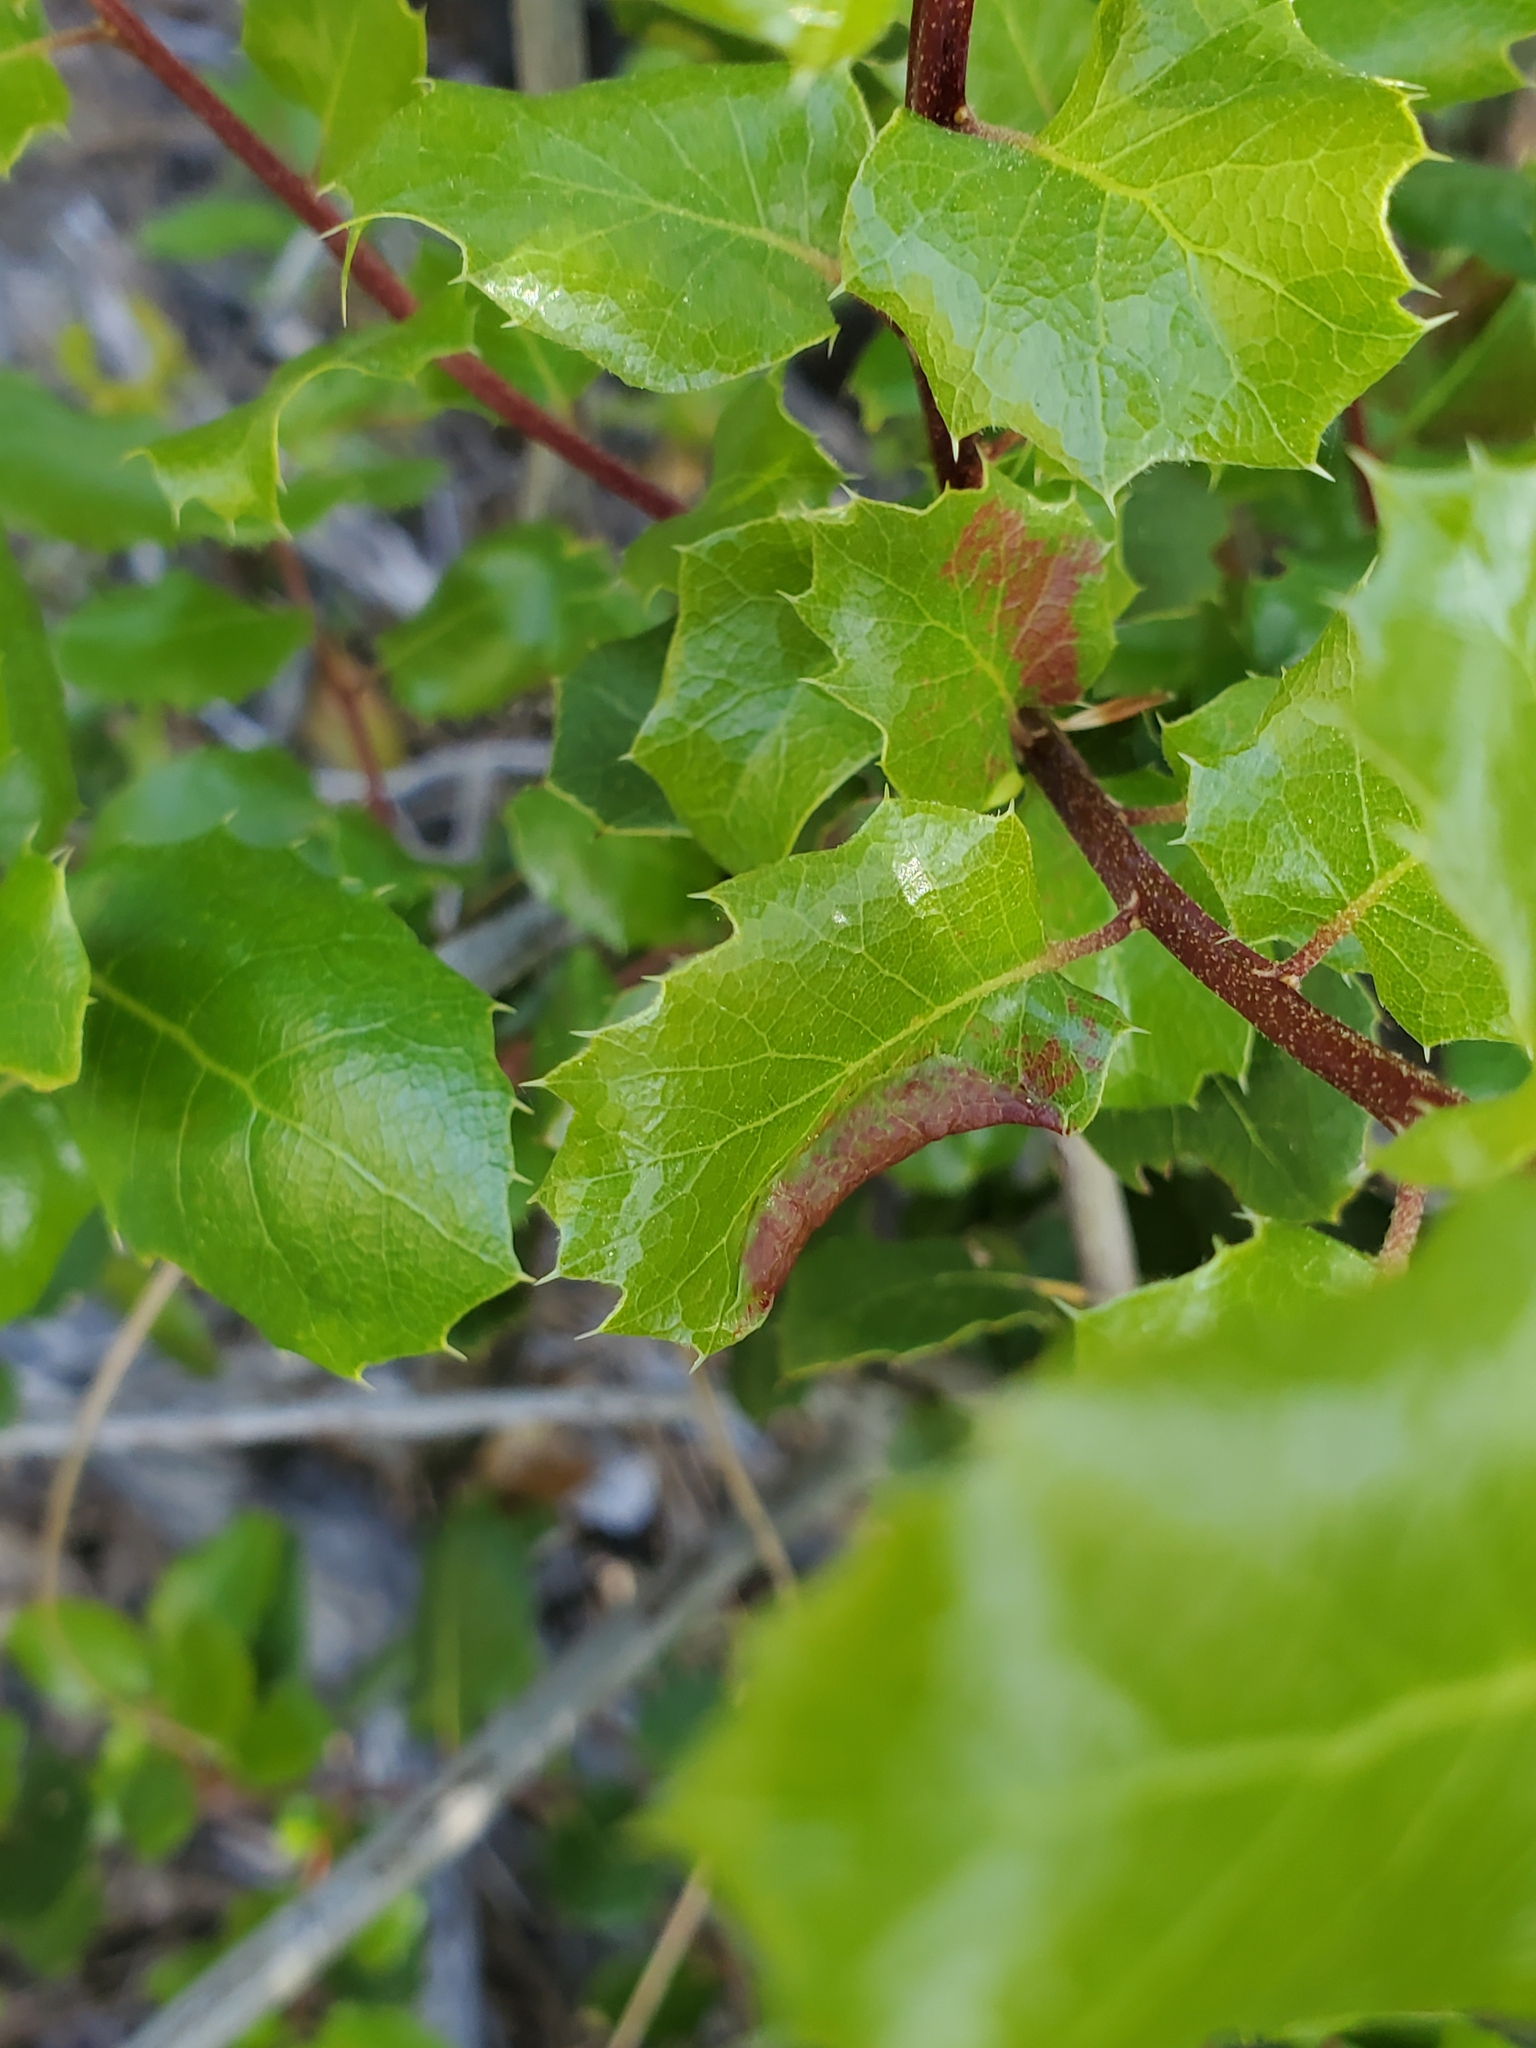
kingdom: Animalia
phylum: Arthropoda
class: Insecta
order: Hemiptera
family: Aphididae
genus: Stegophylla
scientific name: Stegophylla essigi
